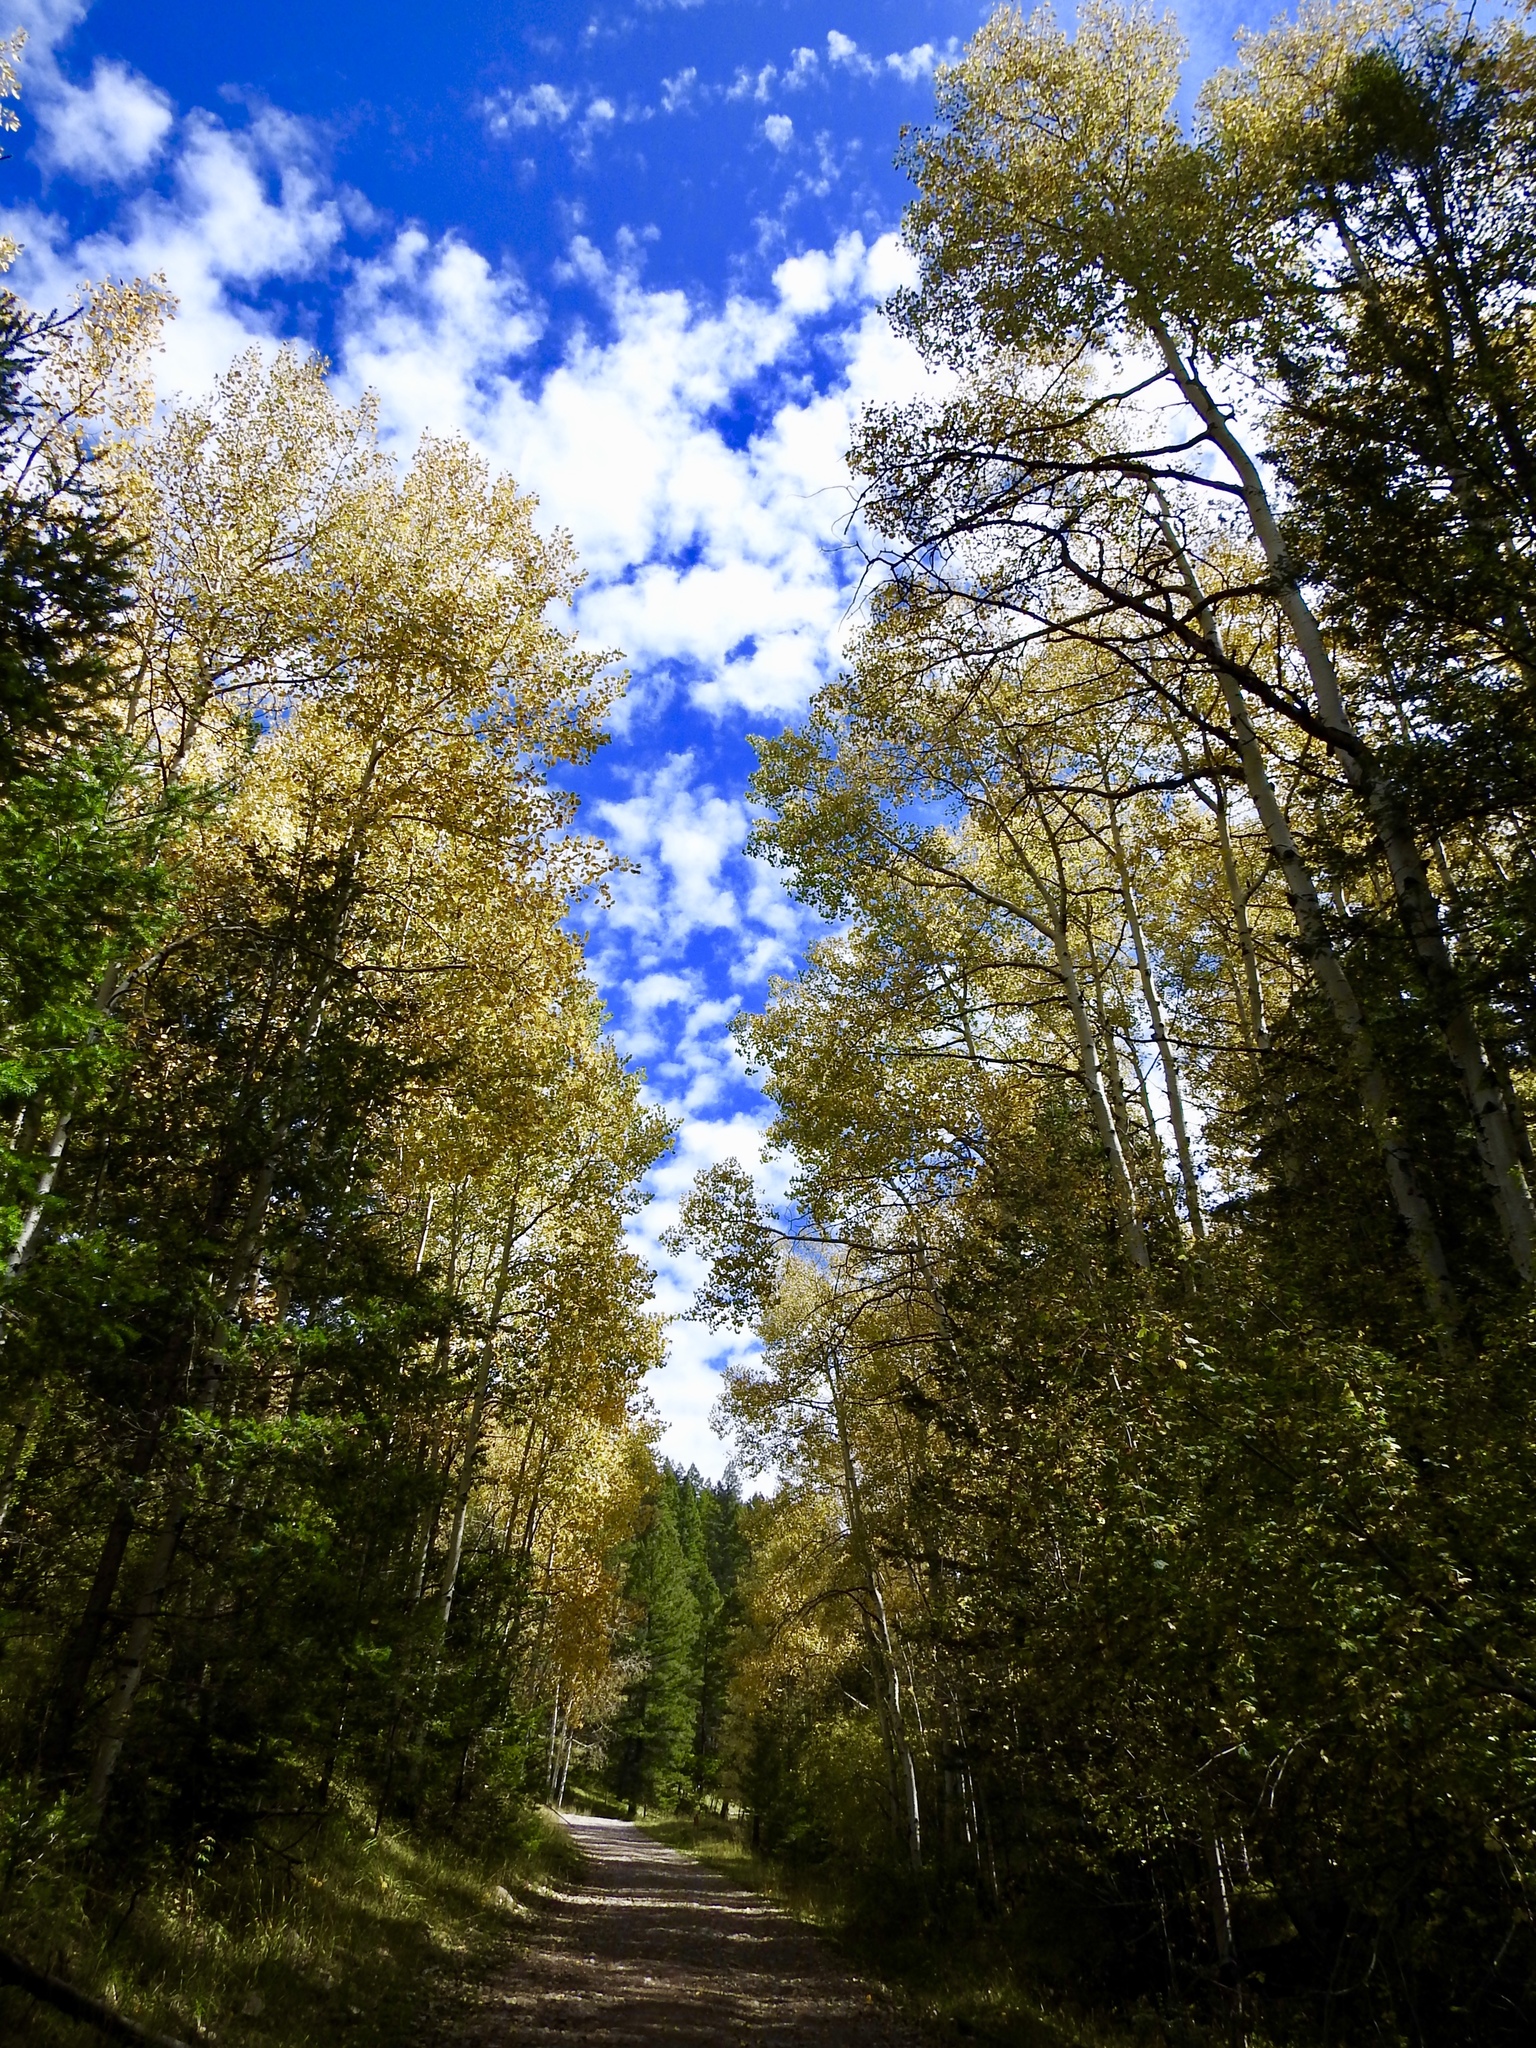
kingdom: Plantae
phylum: Tracheophyta
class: Magnoliopsida
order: Malpighiales
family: Salicaceae
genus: Populus
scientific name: Populus tremuloides
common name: Quaking aspen
